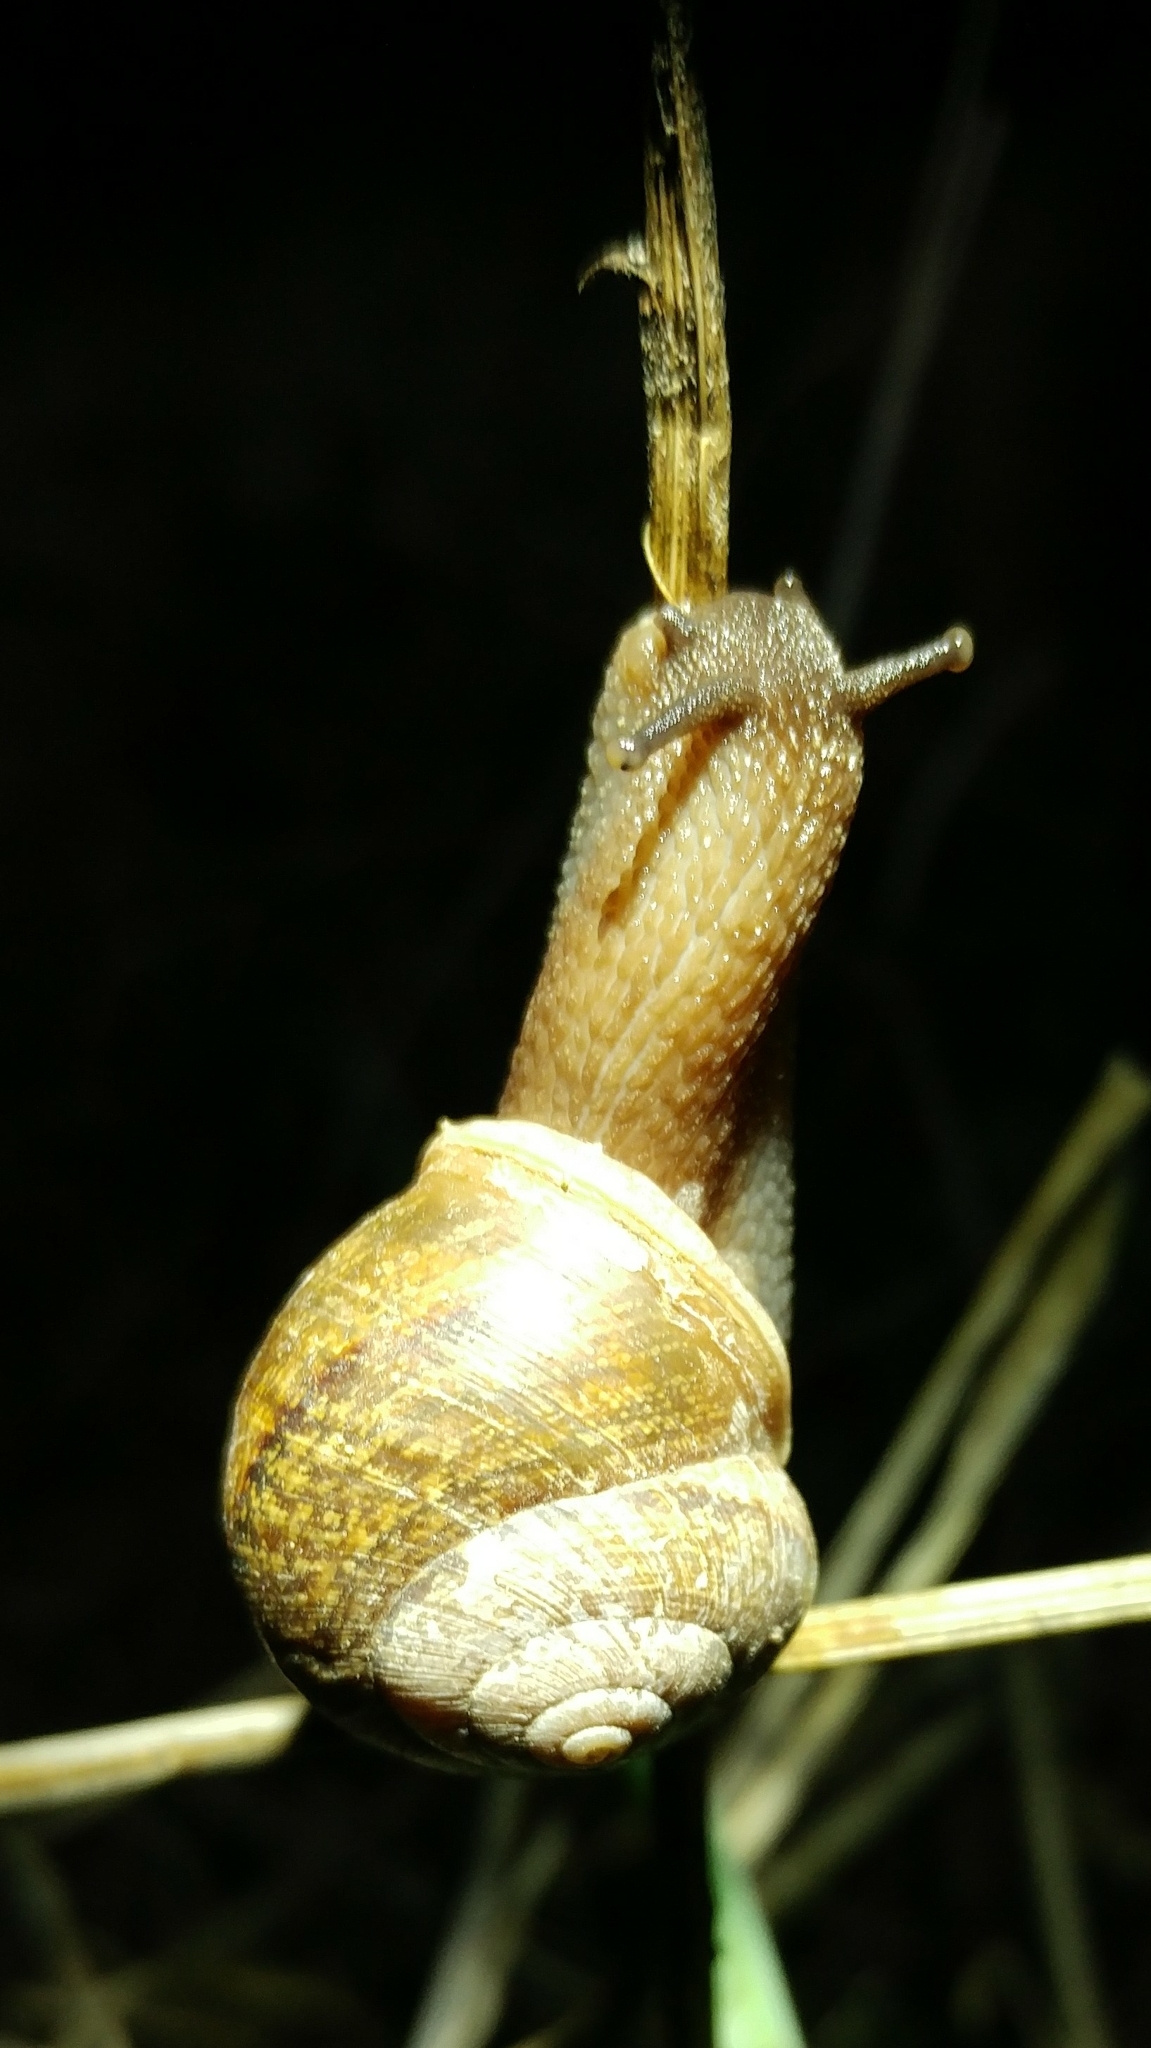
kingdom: Animalia
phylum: Mollusca
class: Gastropoda
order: Stylommatophora
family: Xanthonychidae
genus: Xerarionta
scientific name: Xerarionta stearnsiana
